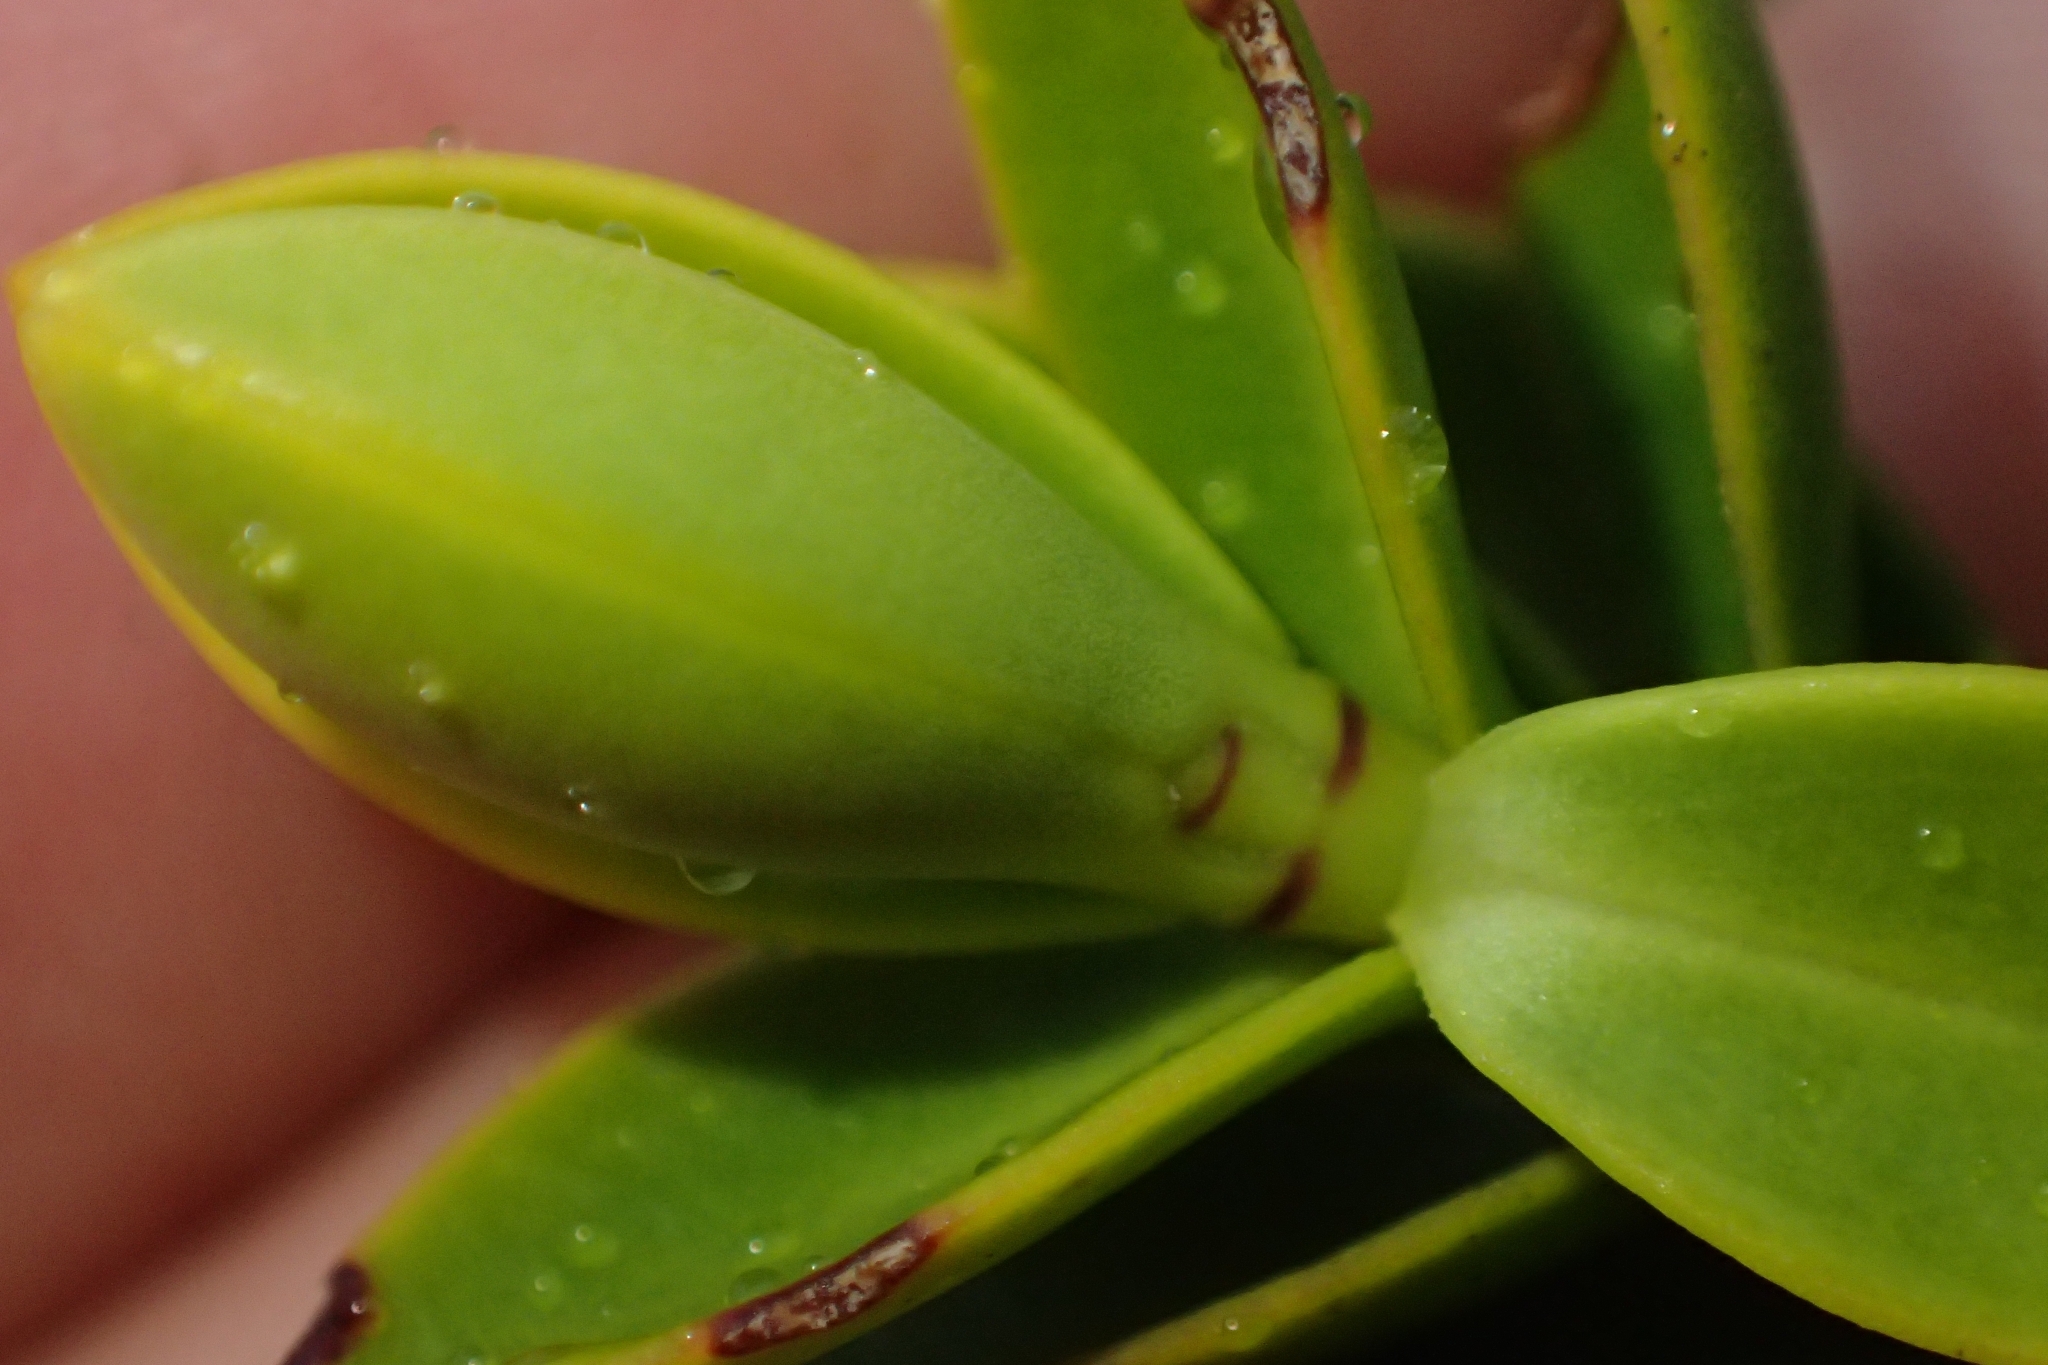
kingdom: Plantae
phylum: Tracheophyta
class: Magnoliopsida
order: Lamiales
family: Plantaginaceae
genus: Veronica
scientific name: Veronica odora
